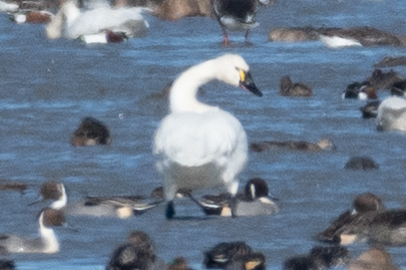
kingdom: Animalia
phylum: Chordata
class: Aves
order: Anseriformes
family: Anatidae
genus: Cygnus
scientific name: Cygnus columbianus
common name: Tundra swan
